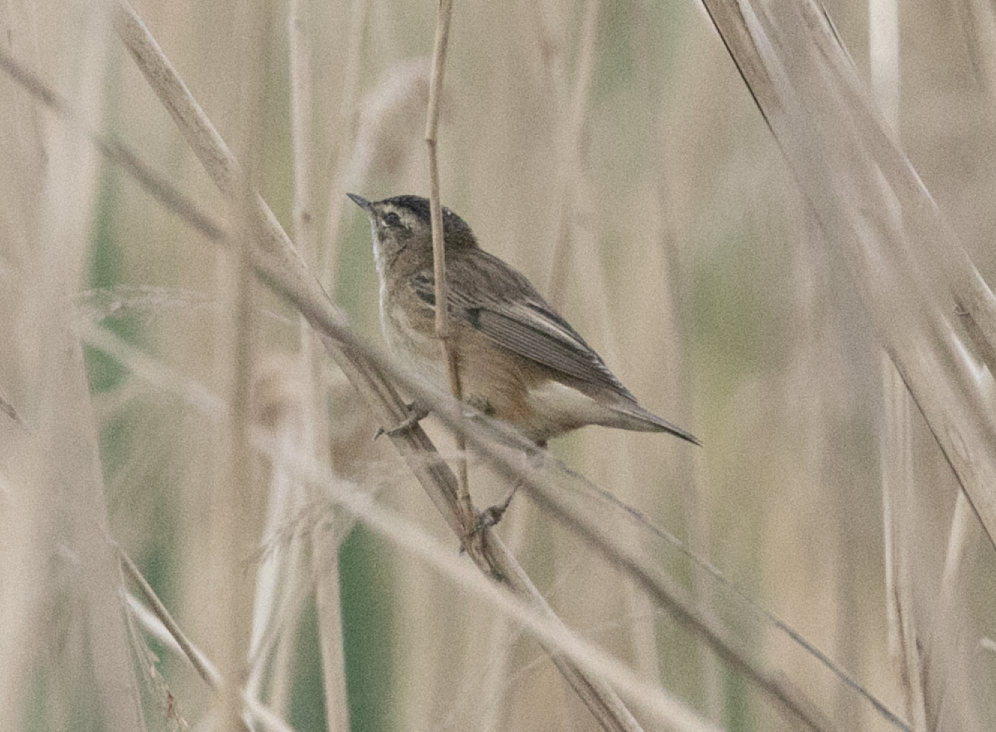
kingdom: Animalia
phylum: Chordata
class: Aves
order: Passeriformes
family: Acrocephalidae
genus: Acrocephalus
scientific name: Acrocephalus schoenobaenus
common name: Sedge warbler
